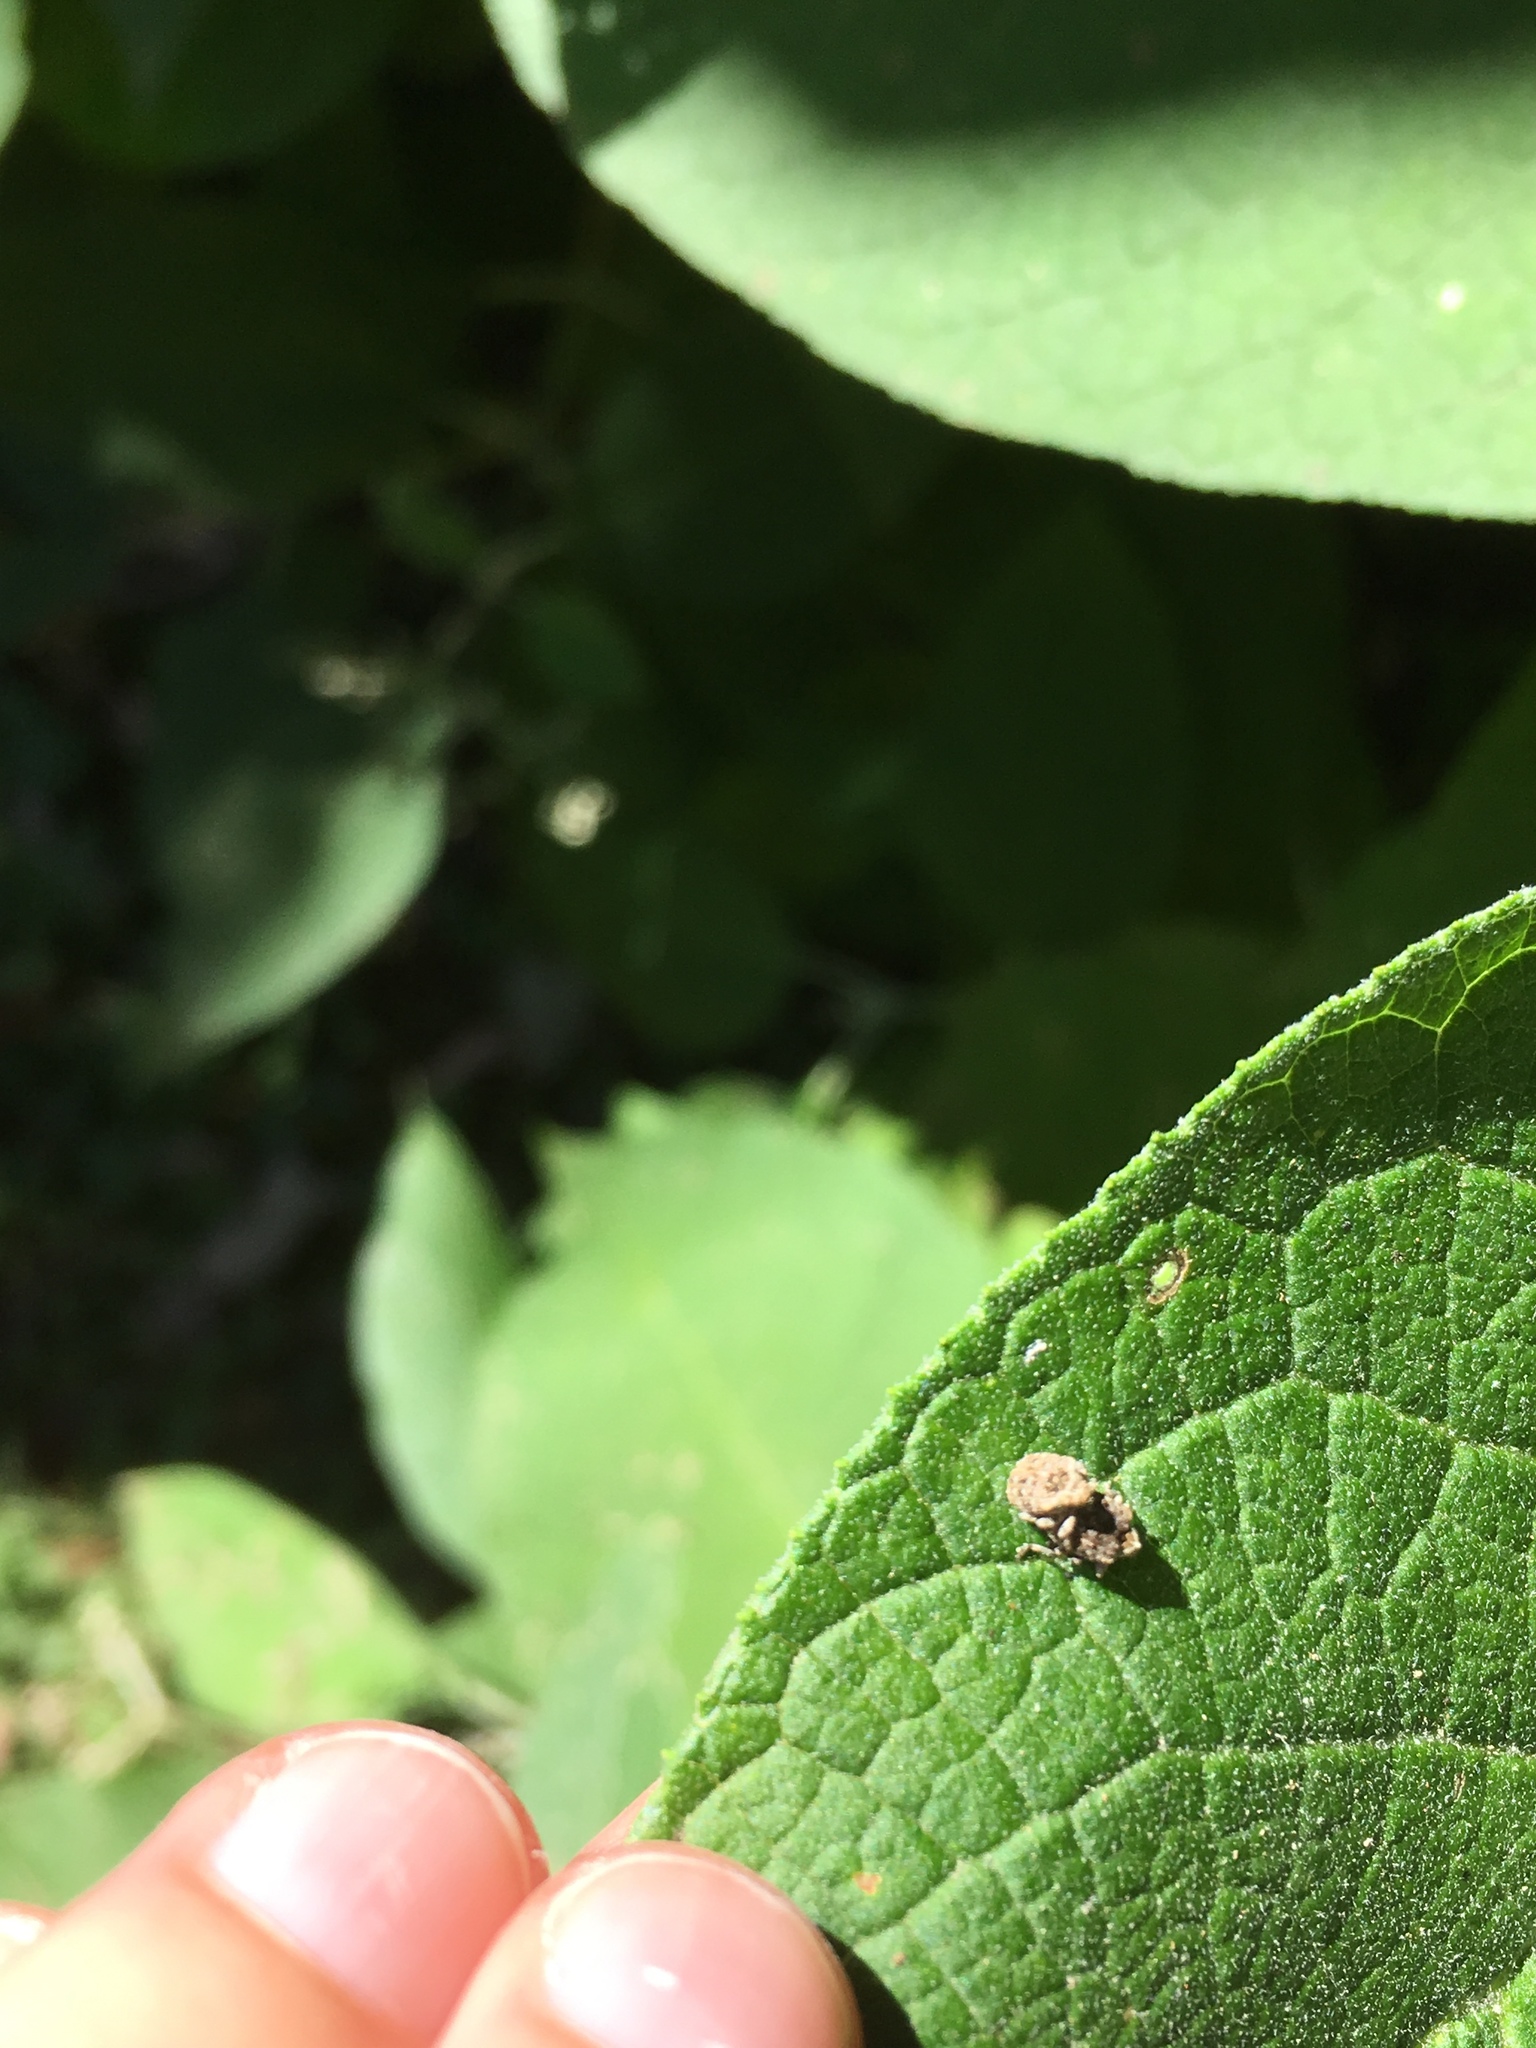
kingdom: Animalia
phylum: Arthropoda
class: Insecta
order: Coleoptera
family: Curculionidae
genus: Cleopus
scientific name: Cleopus japonicus
